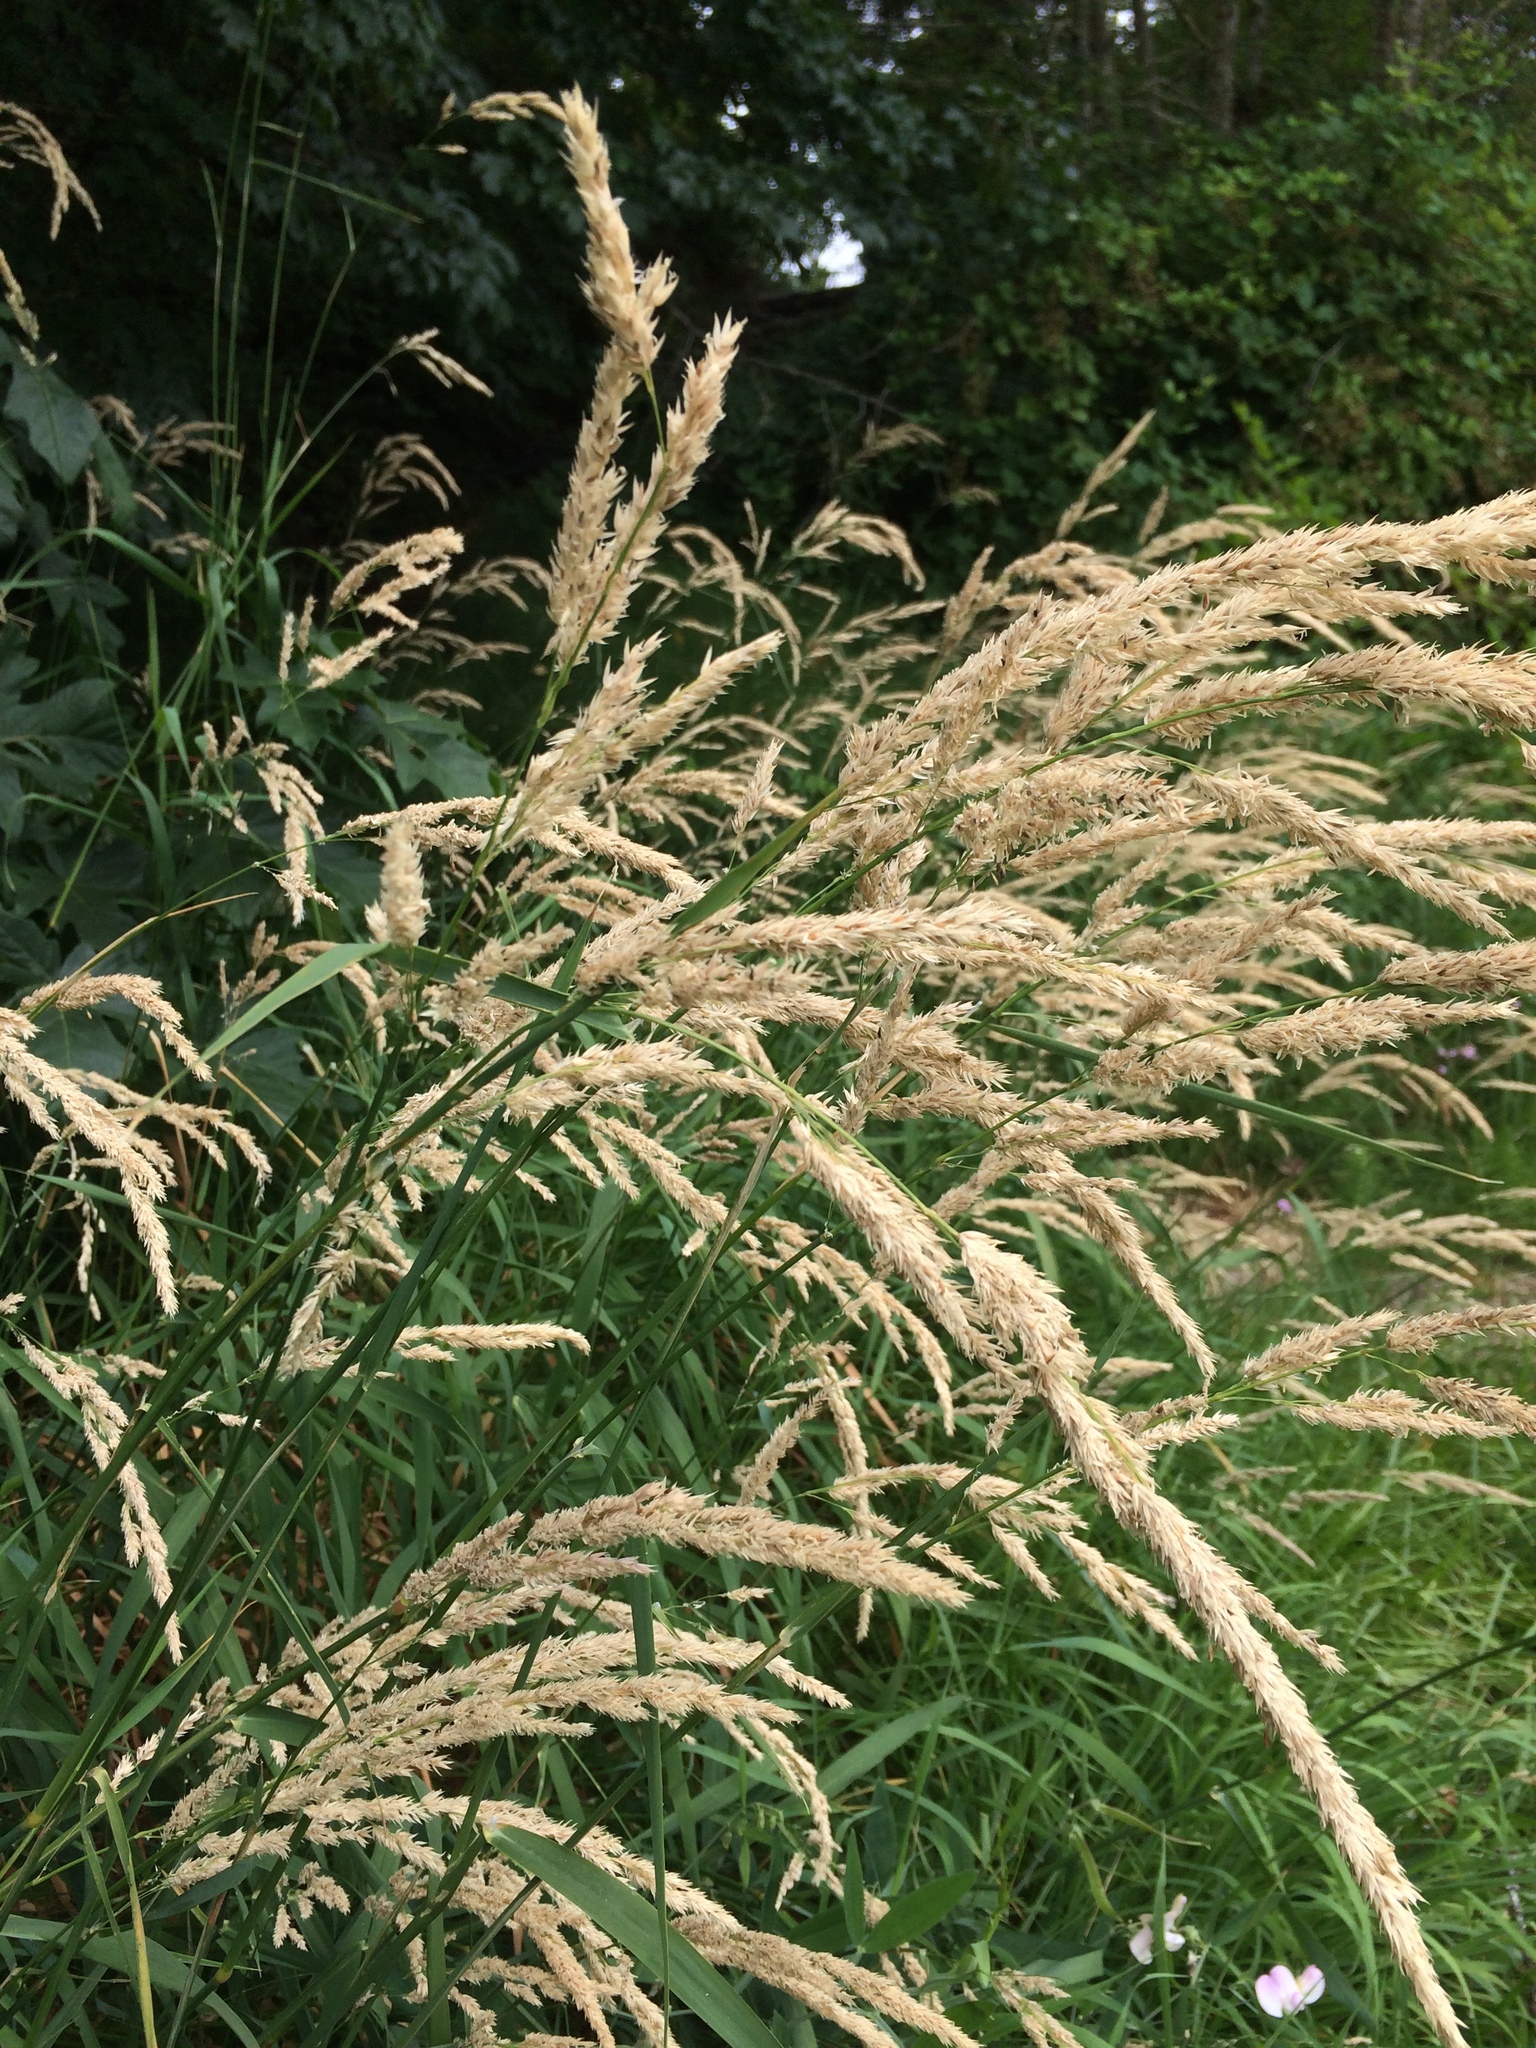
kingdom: Plantae
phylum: Tracheophyta
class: Liliopsida
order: Poales
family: Poaceae
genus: Phalaris
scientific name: Phalaris arundinacea
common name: Reed canary-grass
